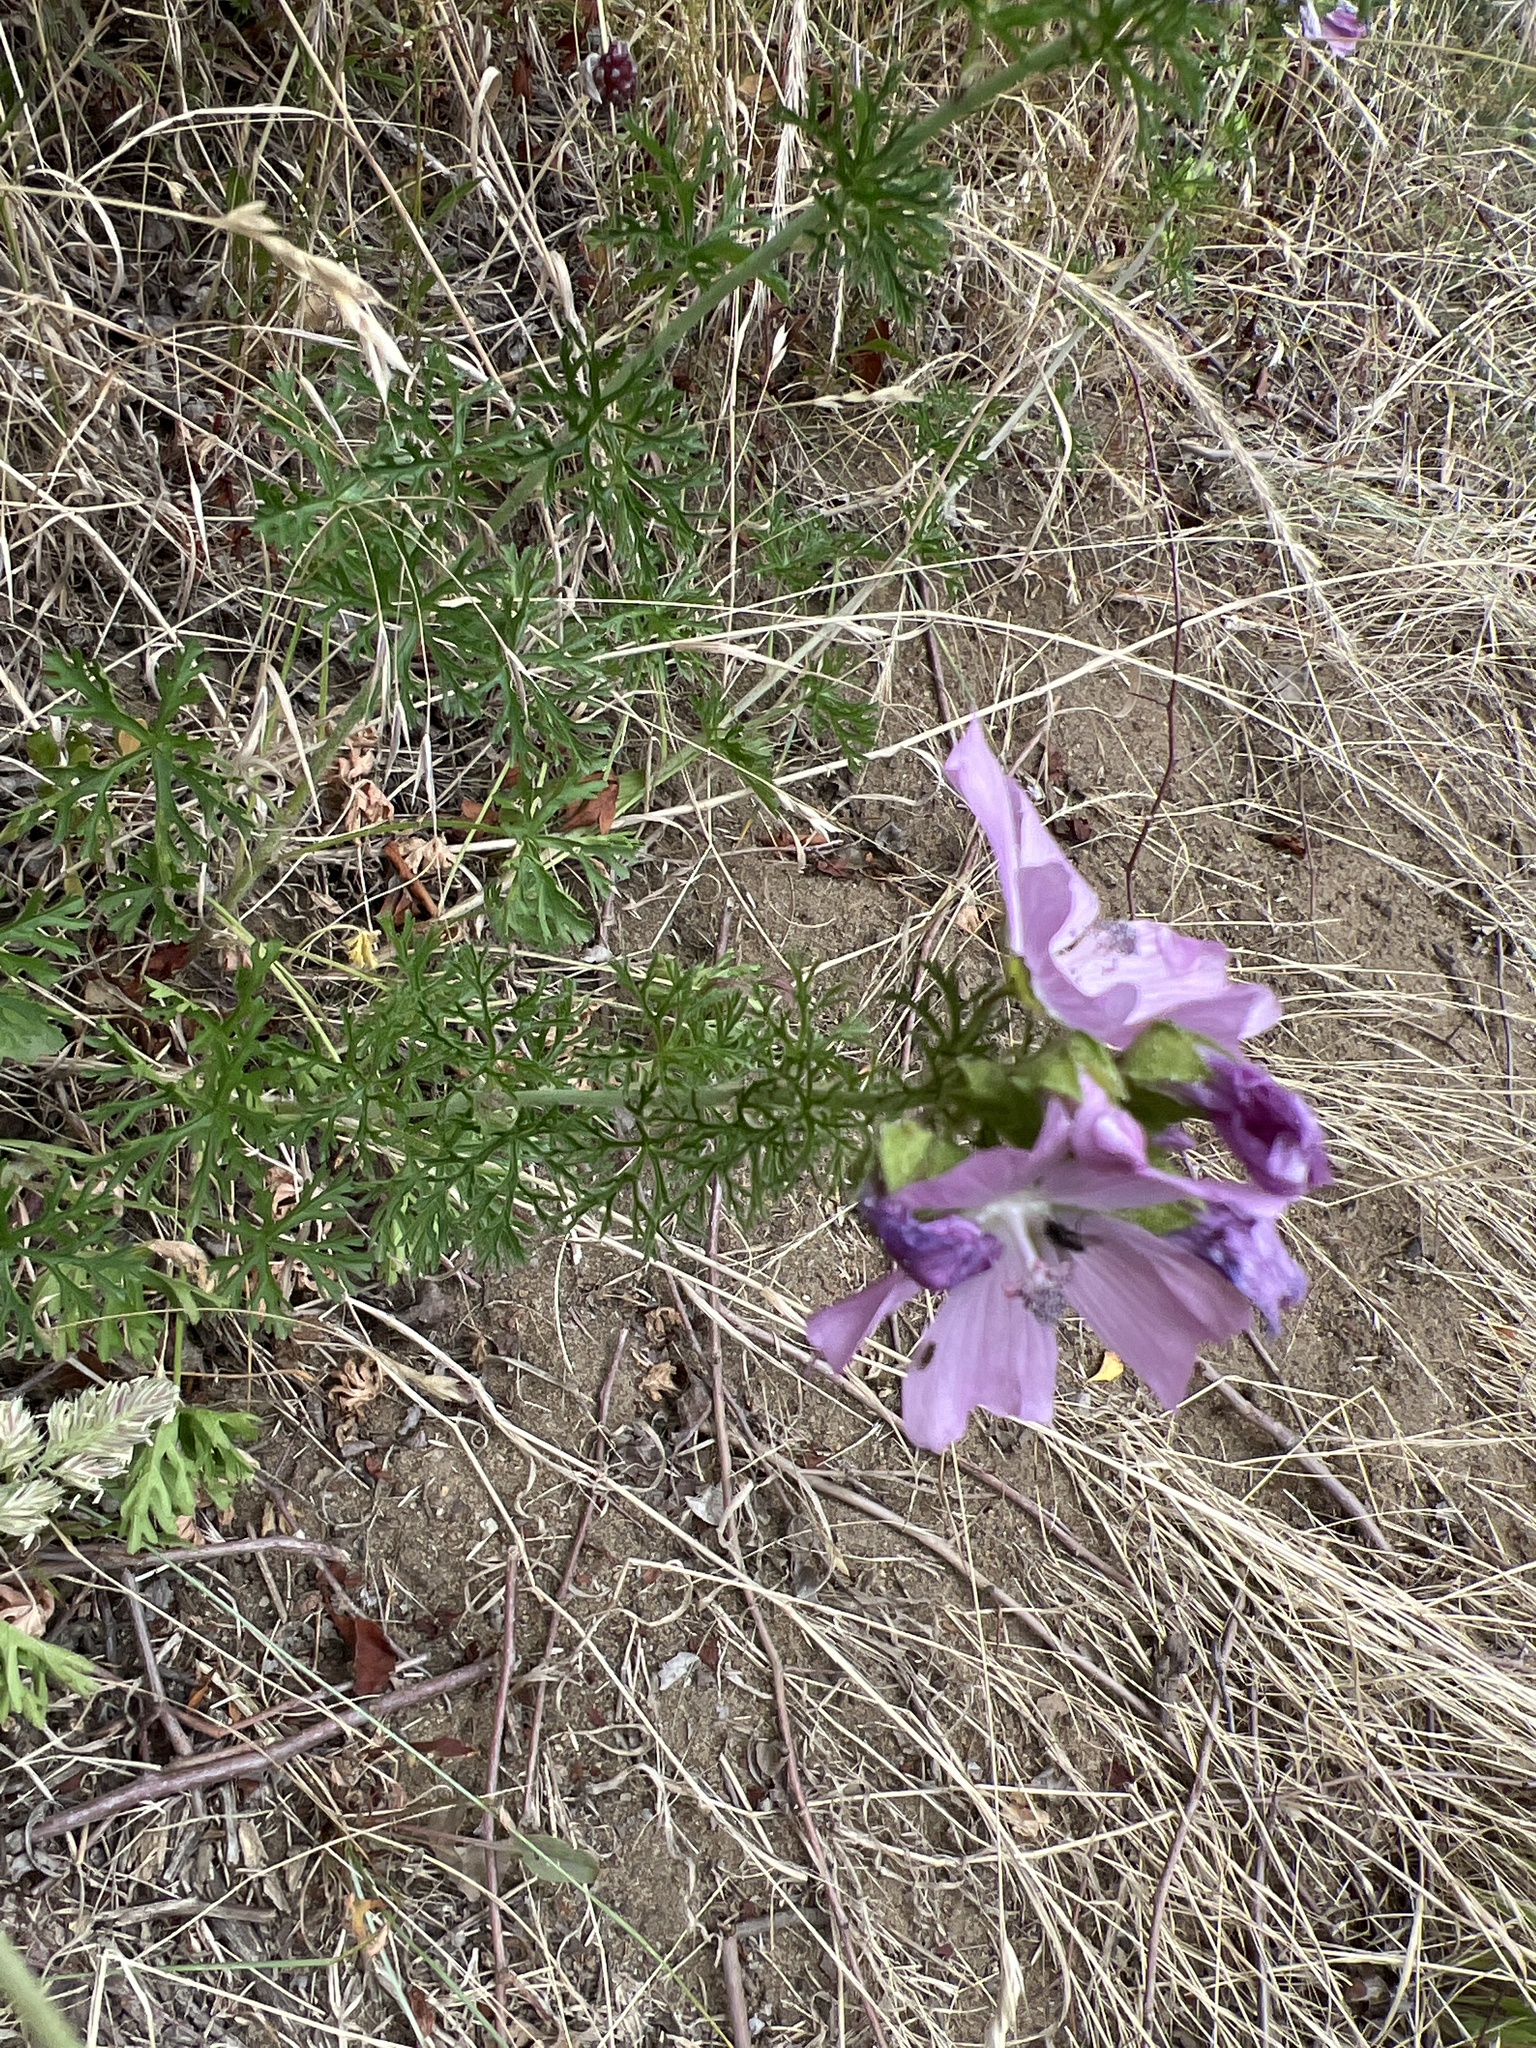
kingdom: Plantae
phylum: Tracheophyta
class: Magnoliopsida
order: Malvales
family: Malvaceae
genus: Malva
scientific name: Malva moschata
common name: Musk mallow
